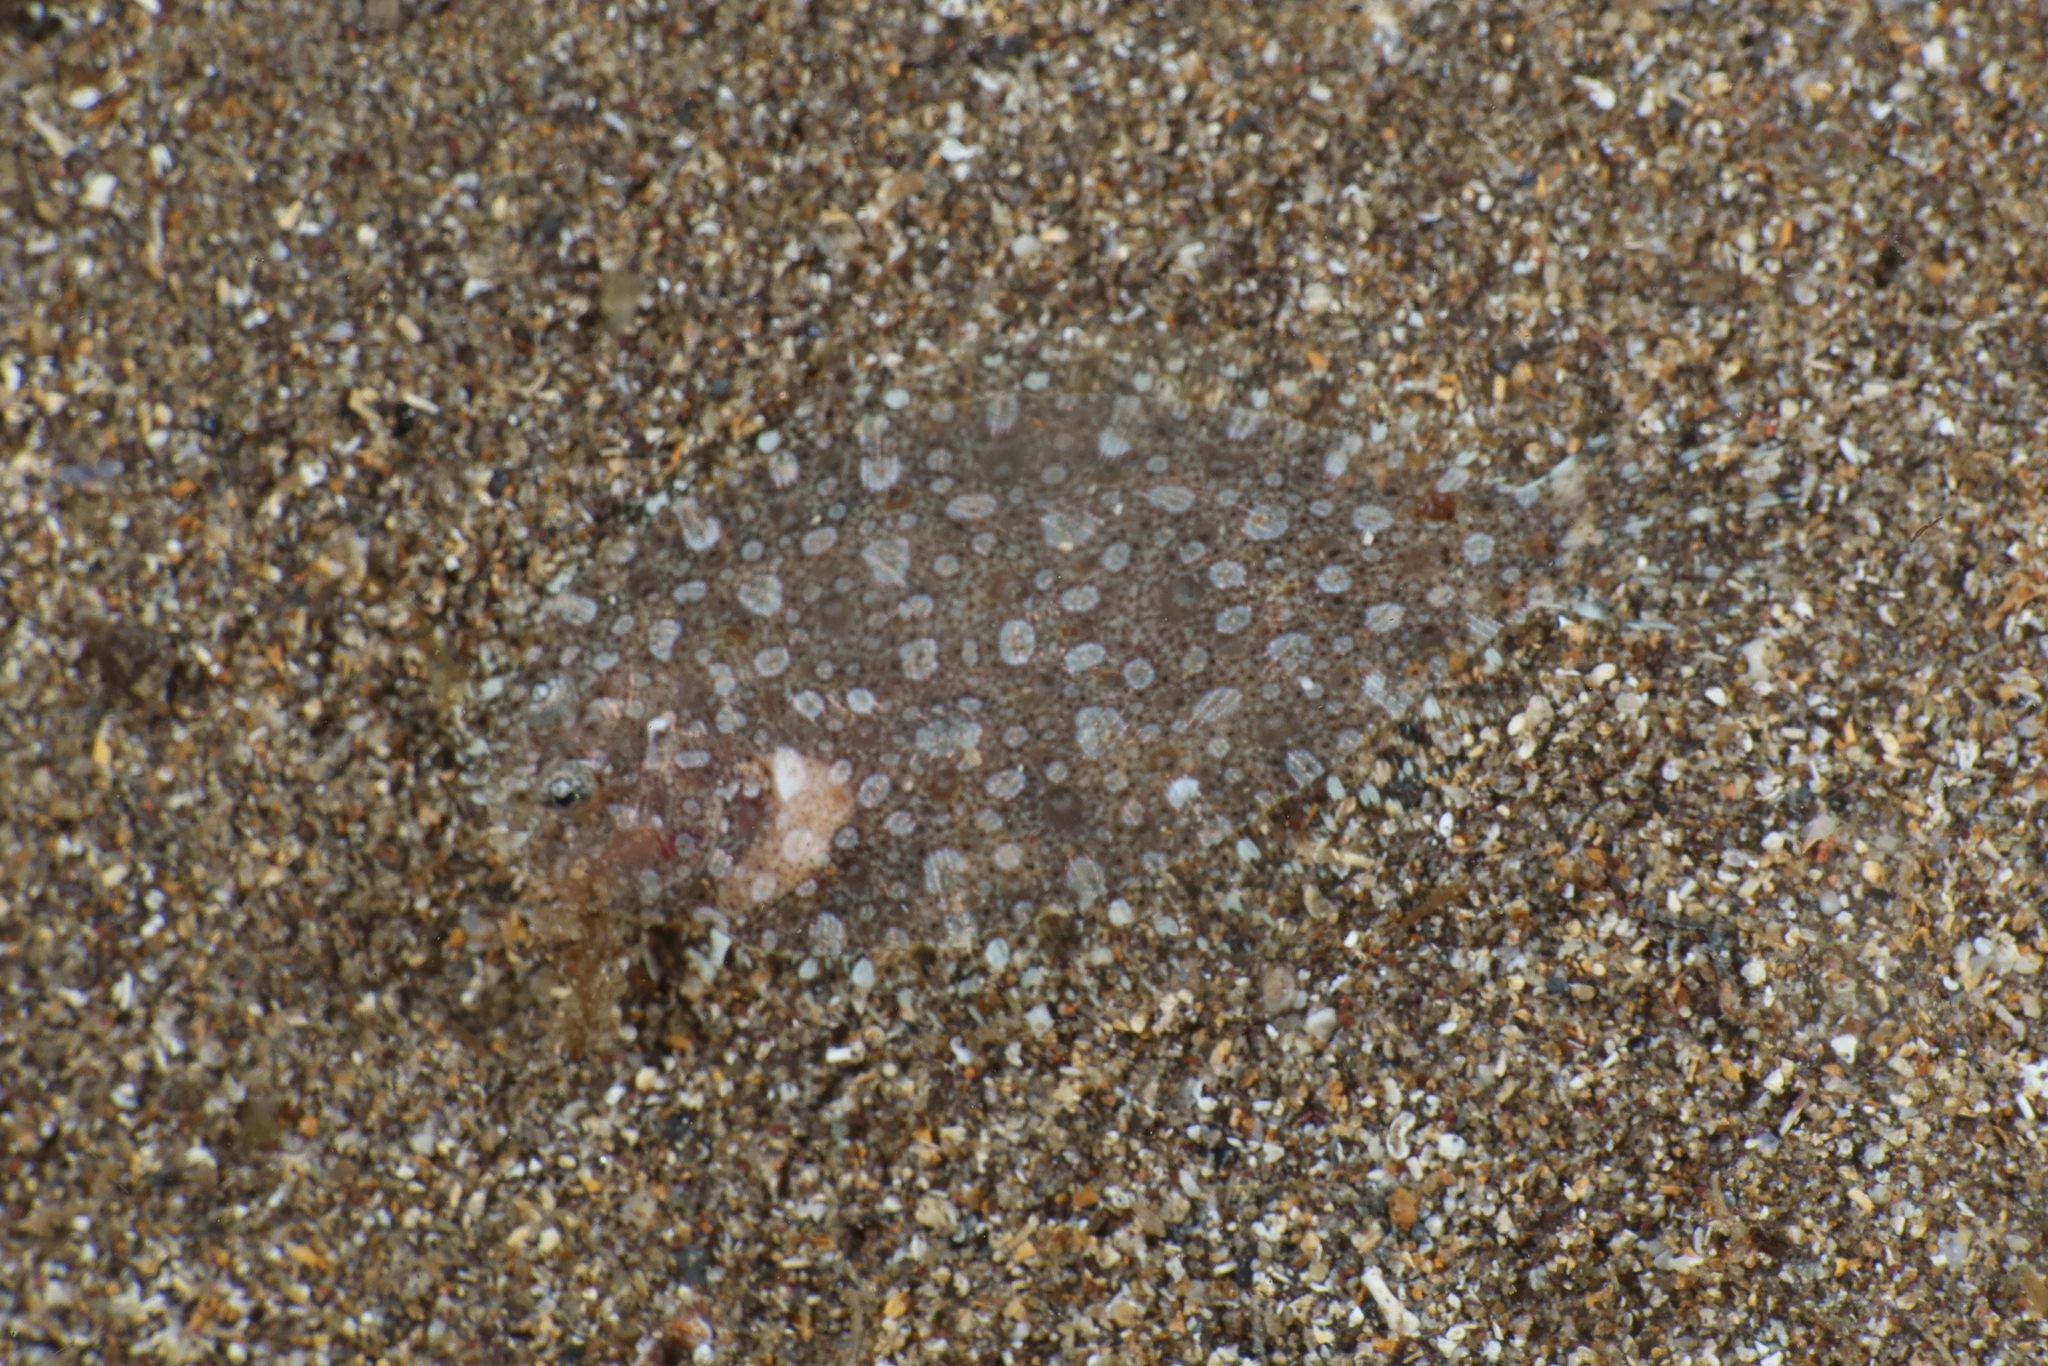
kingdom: Animalia
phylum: Chordata
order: Pleuronectiformes
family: Bothidae
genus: Bothus
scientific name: Bothus podas
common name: Wide-eyed flounder
